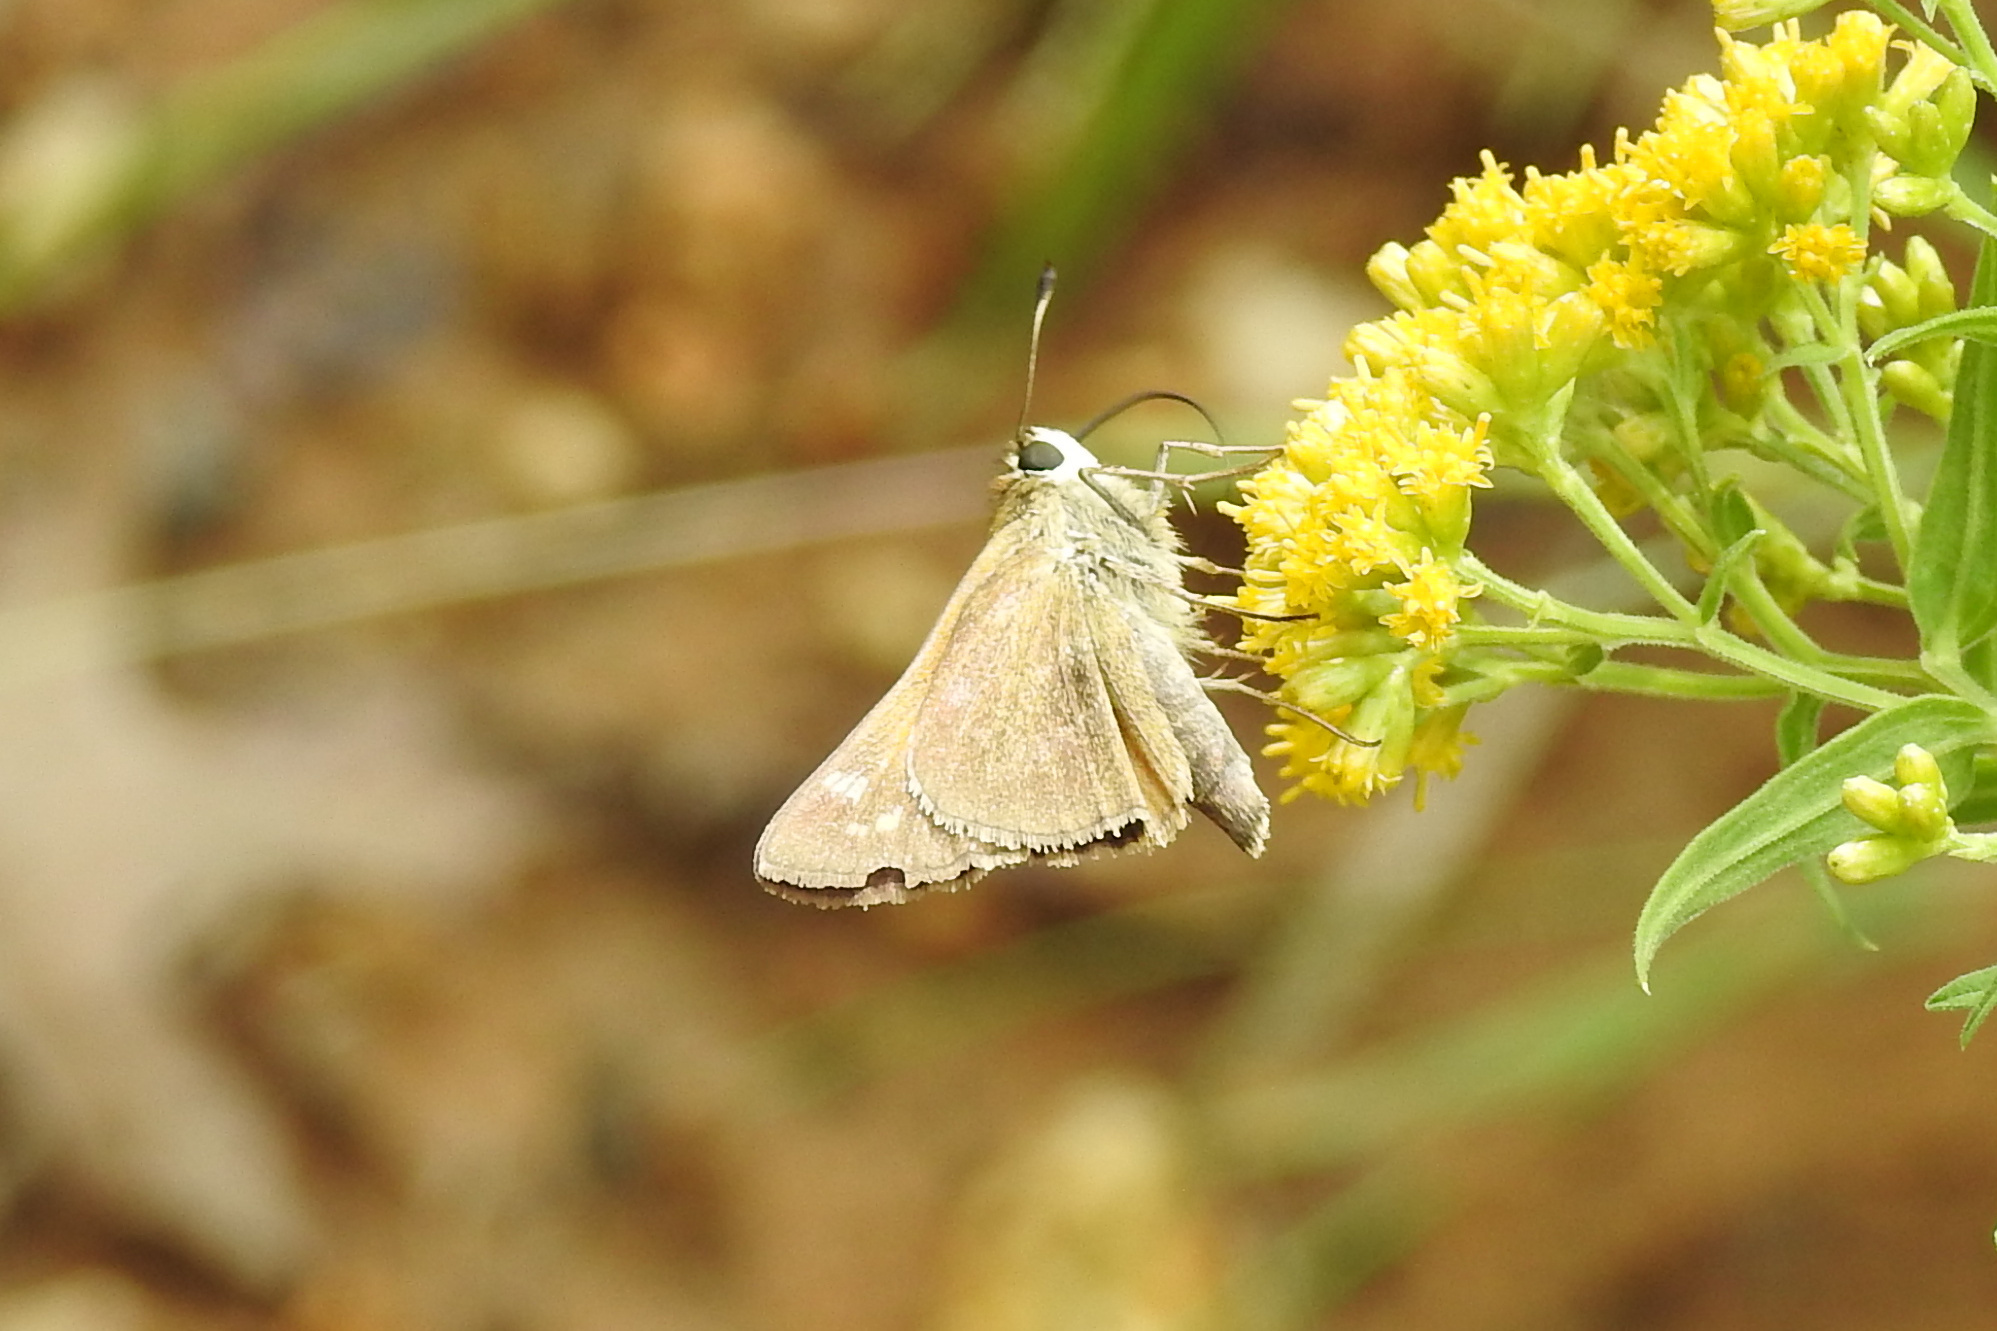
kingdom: Animalia
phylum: Arthropoda
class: Insecta
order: Lepidoptera
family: Hesperiidae
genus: Atalopedes
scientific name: Atalopedes
